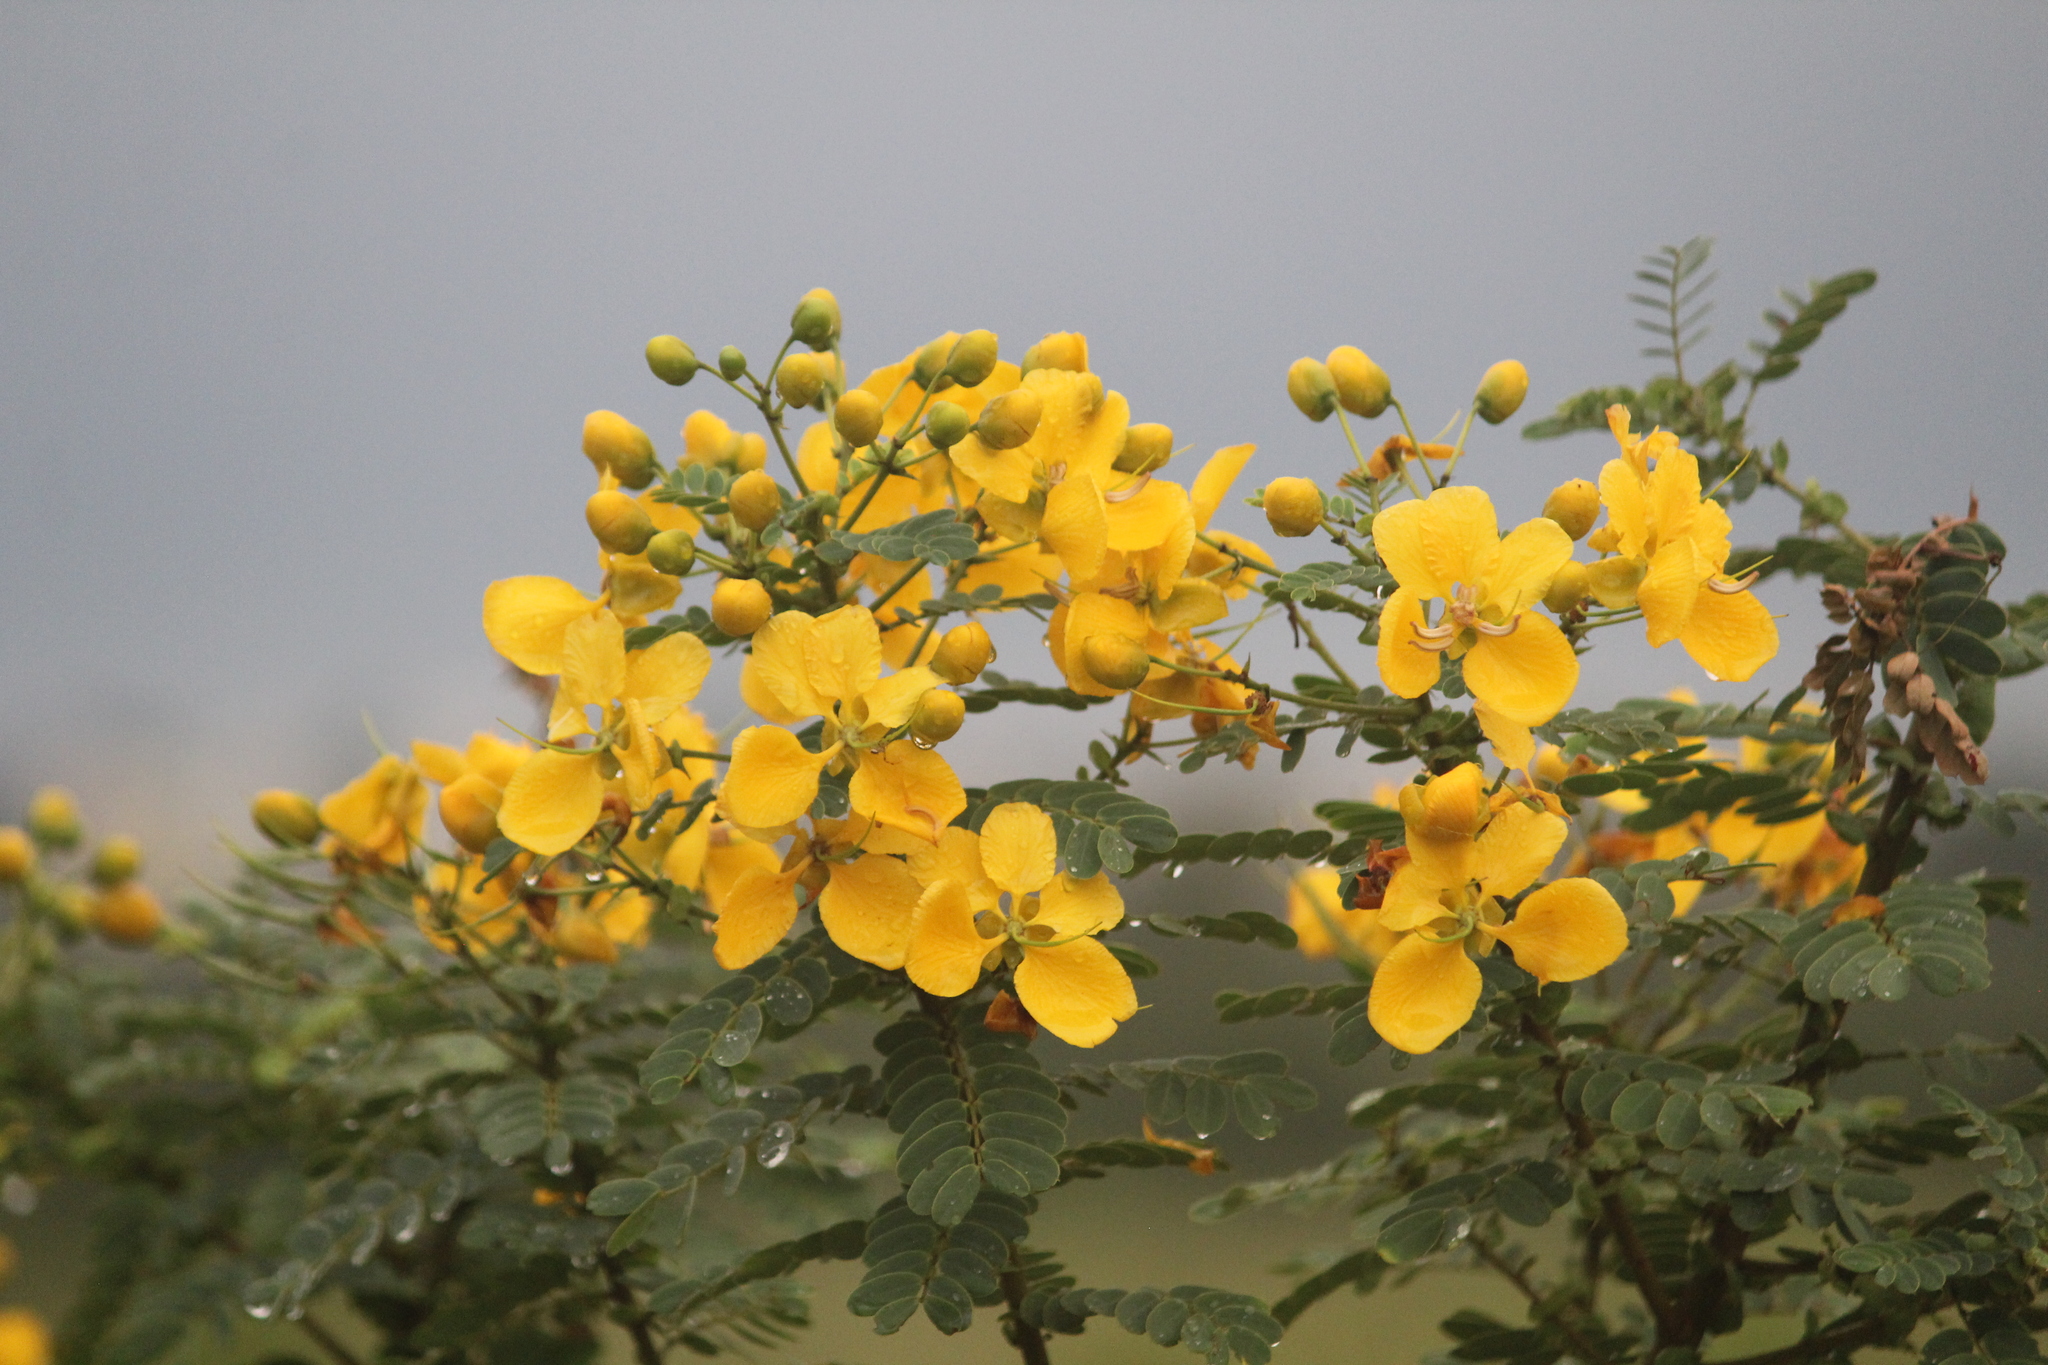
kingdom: Plantae
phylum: Tracheophyta
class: Magnoliopsida
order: Fabales
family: Fabaceae
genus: Senna
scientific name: Senna auriculata
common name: Tanner's cassia
